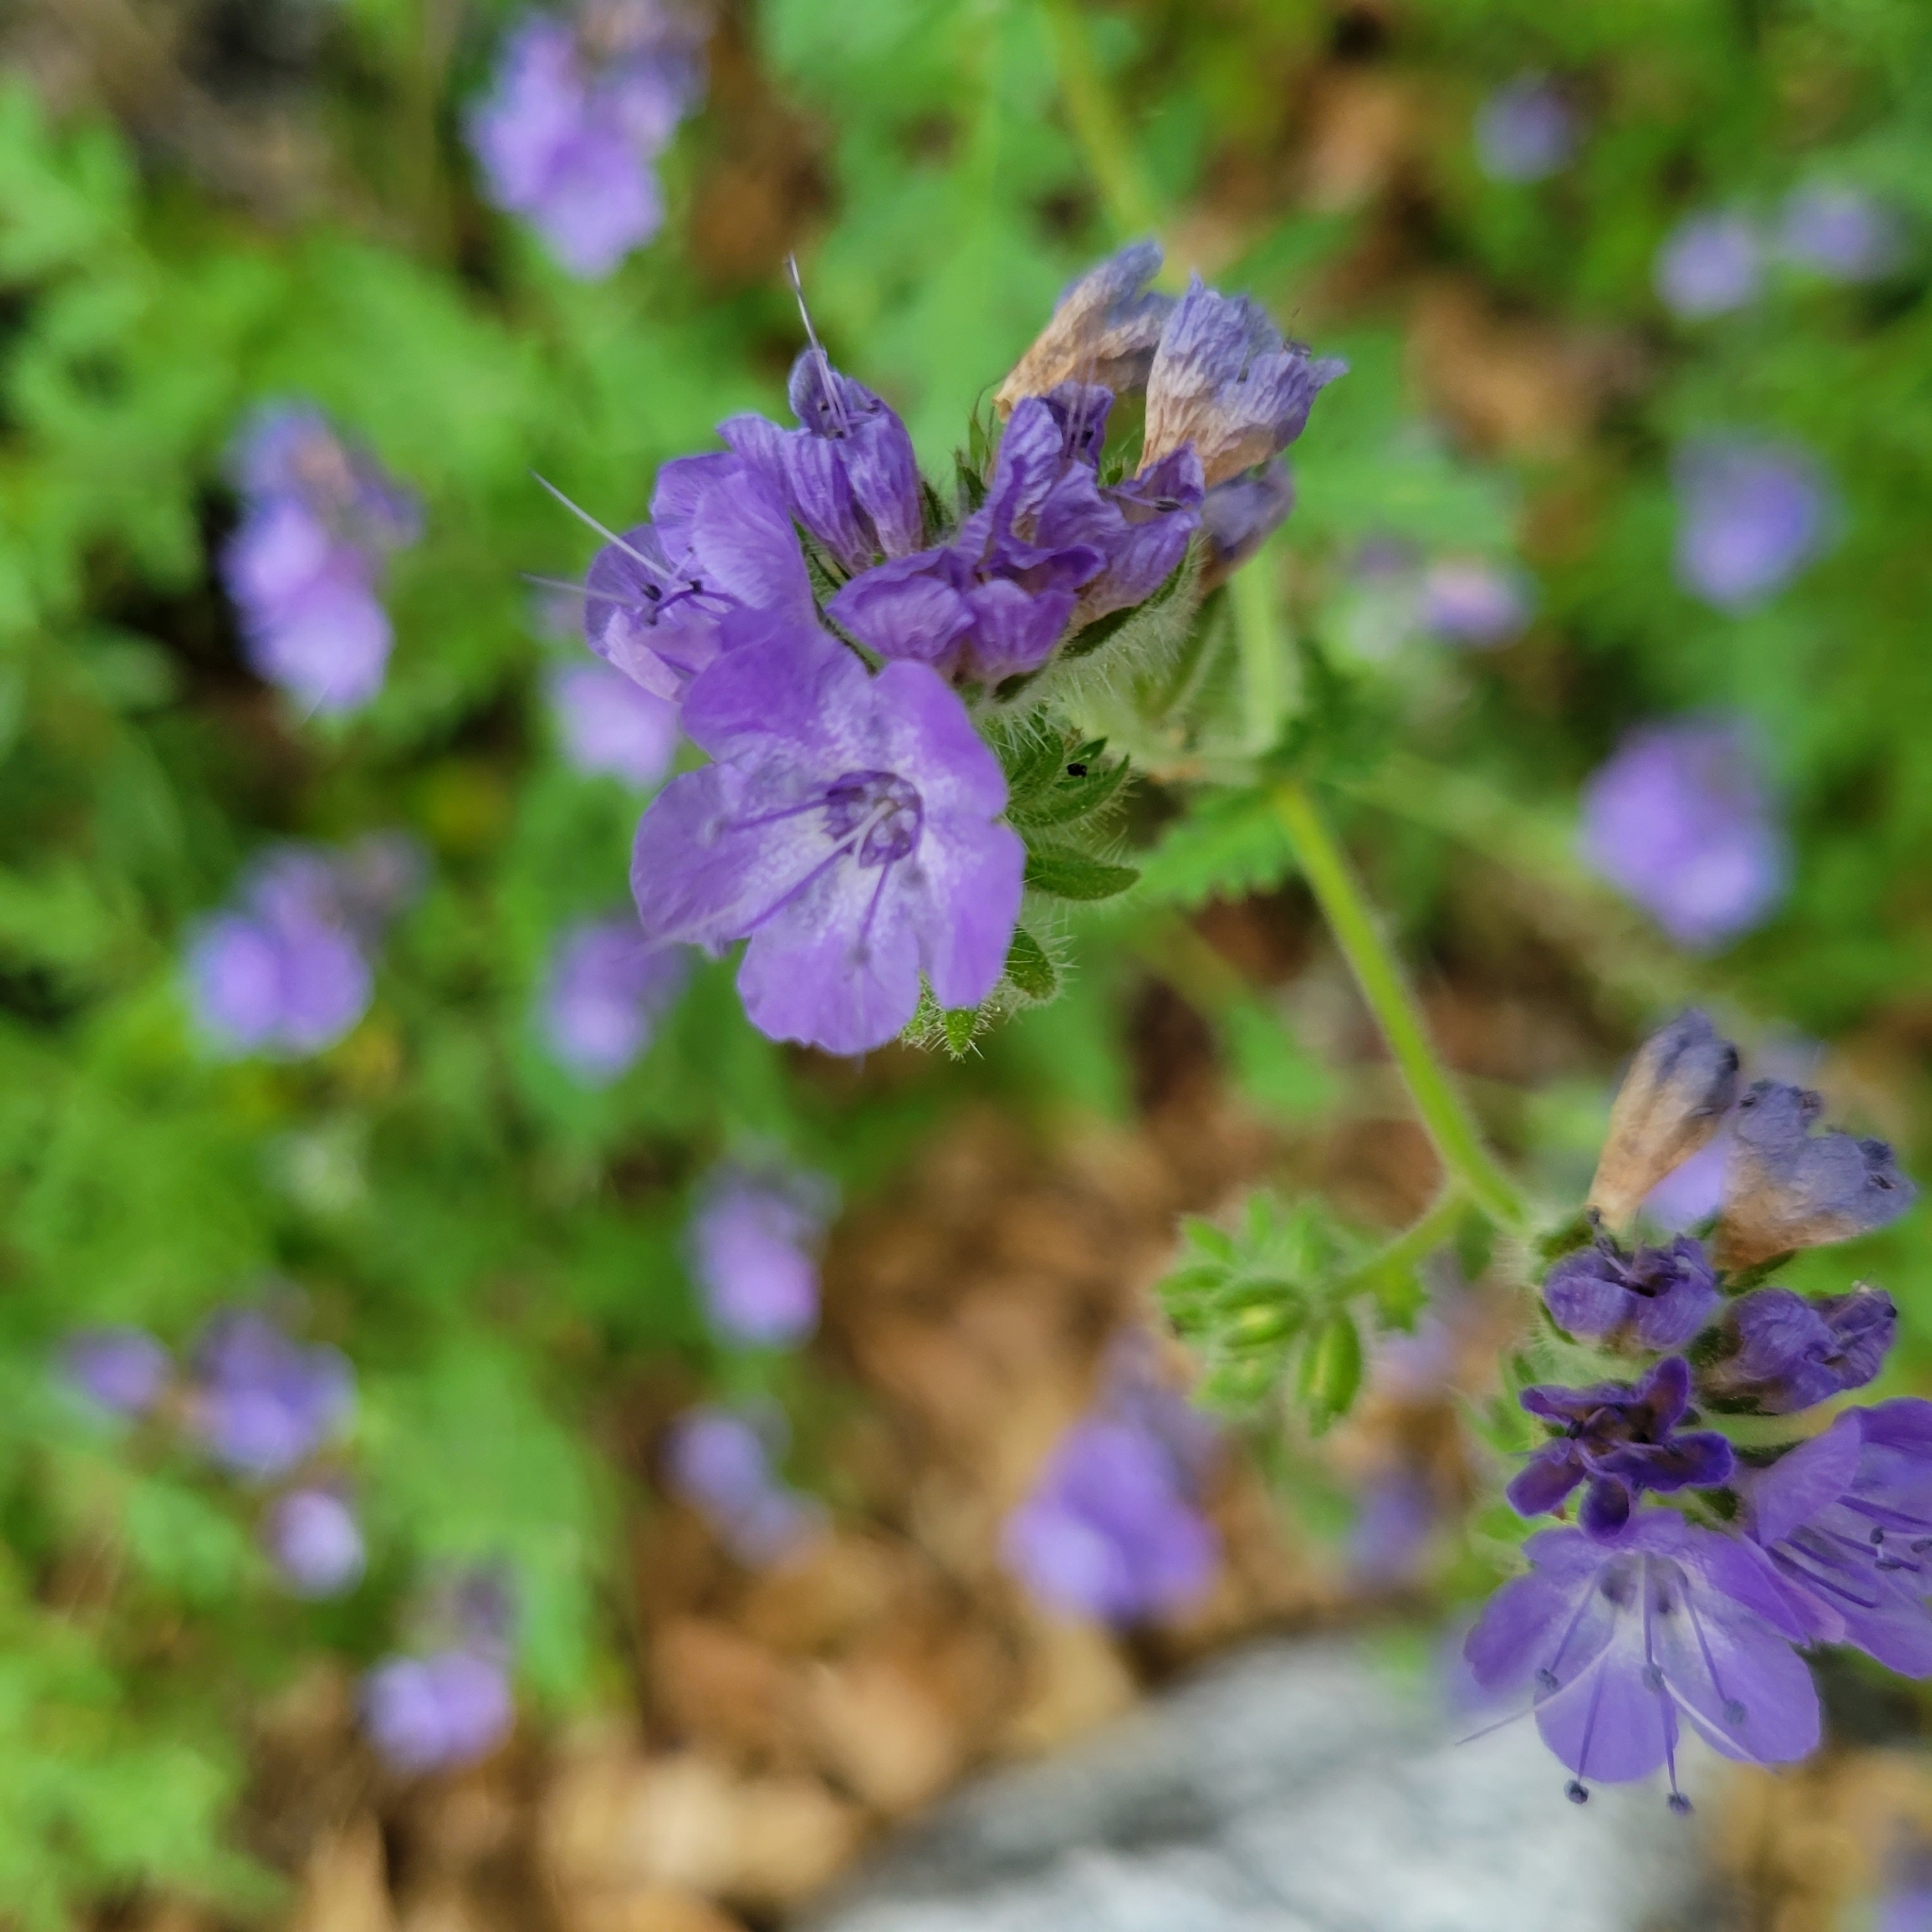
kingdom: Plantae
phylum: Tracheophyta
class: Magnoliopsida
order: Boraginales
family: Hydrophyllaceae
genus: Phacelia
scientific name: Phacelia distans
